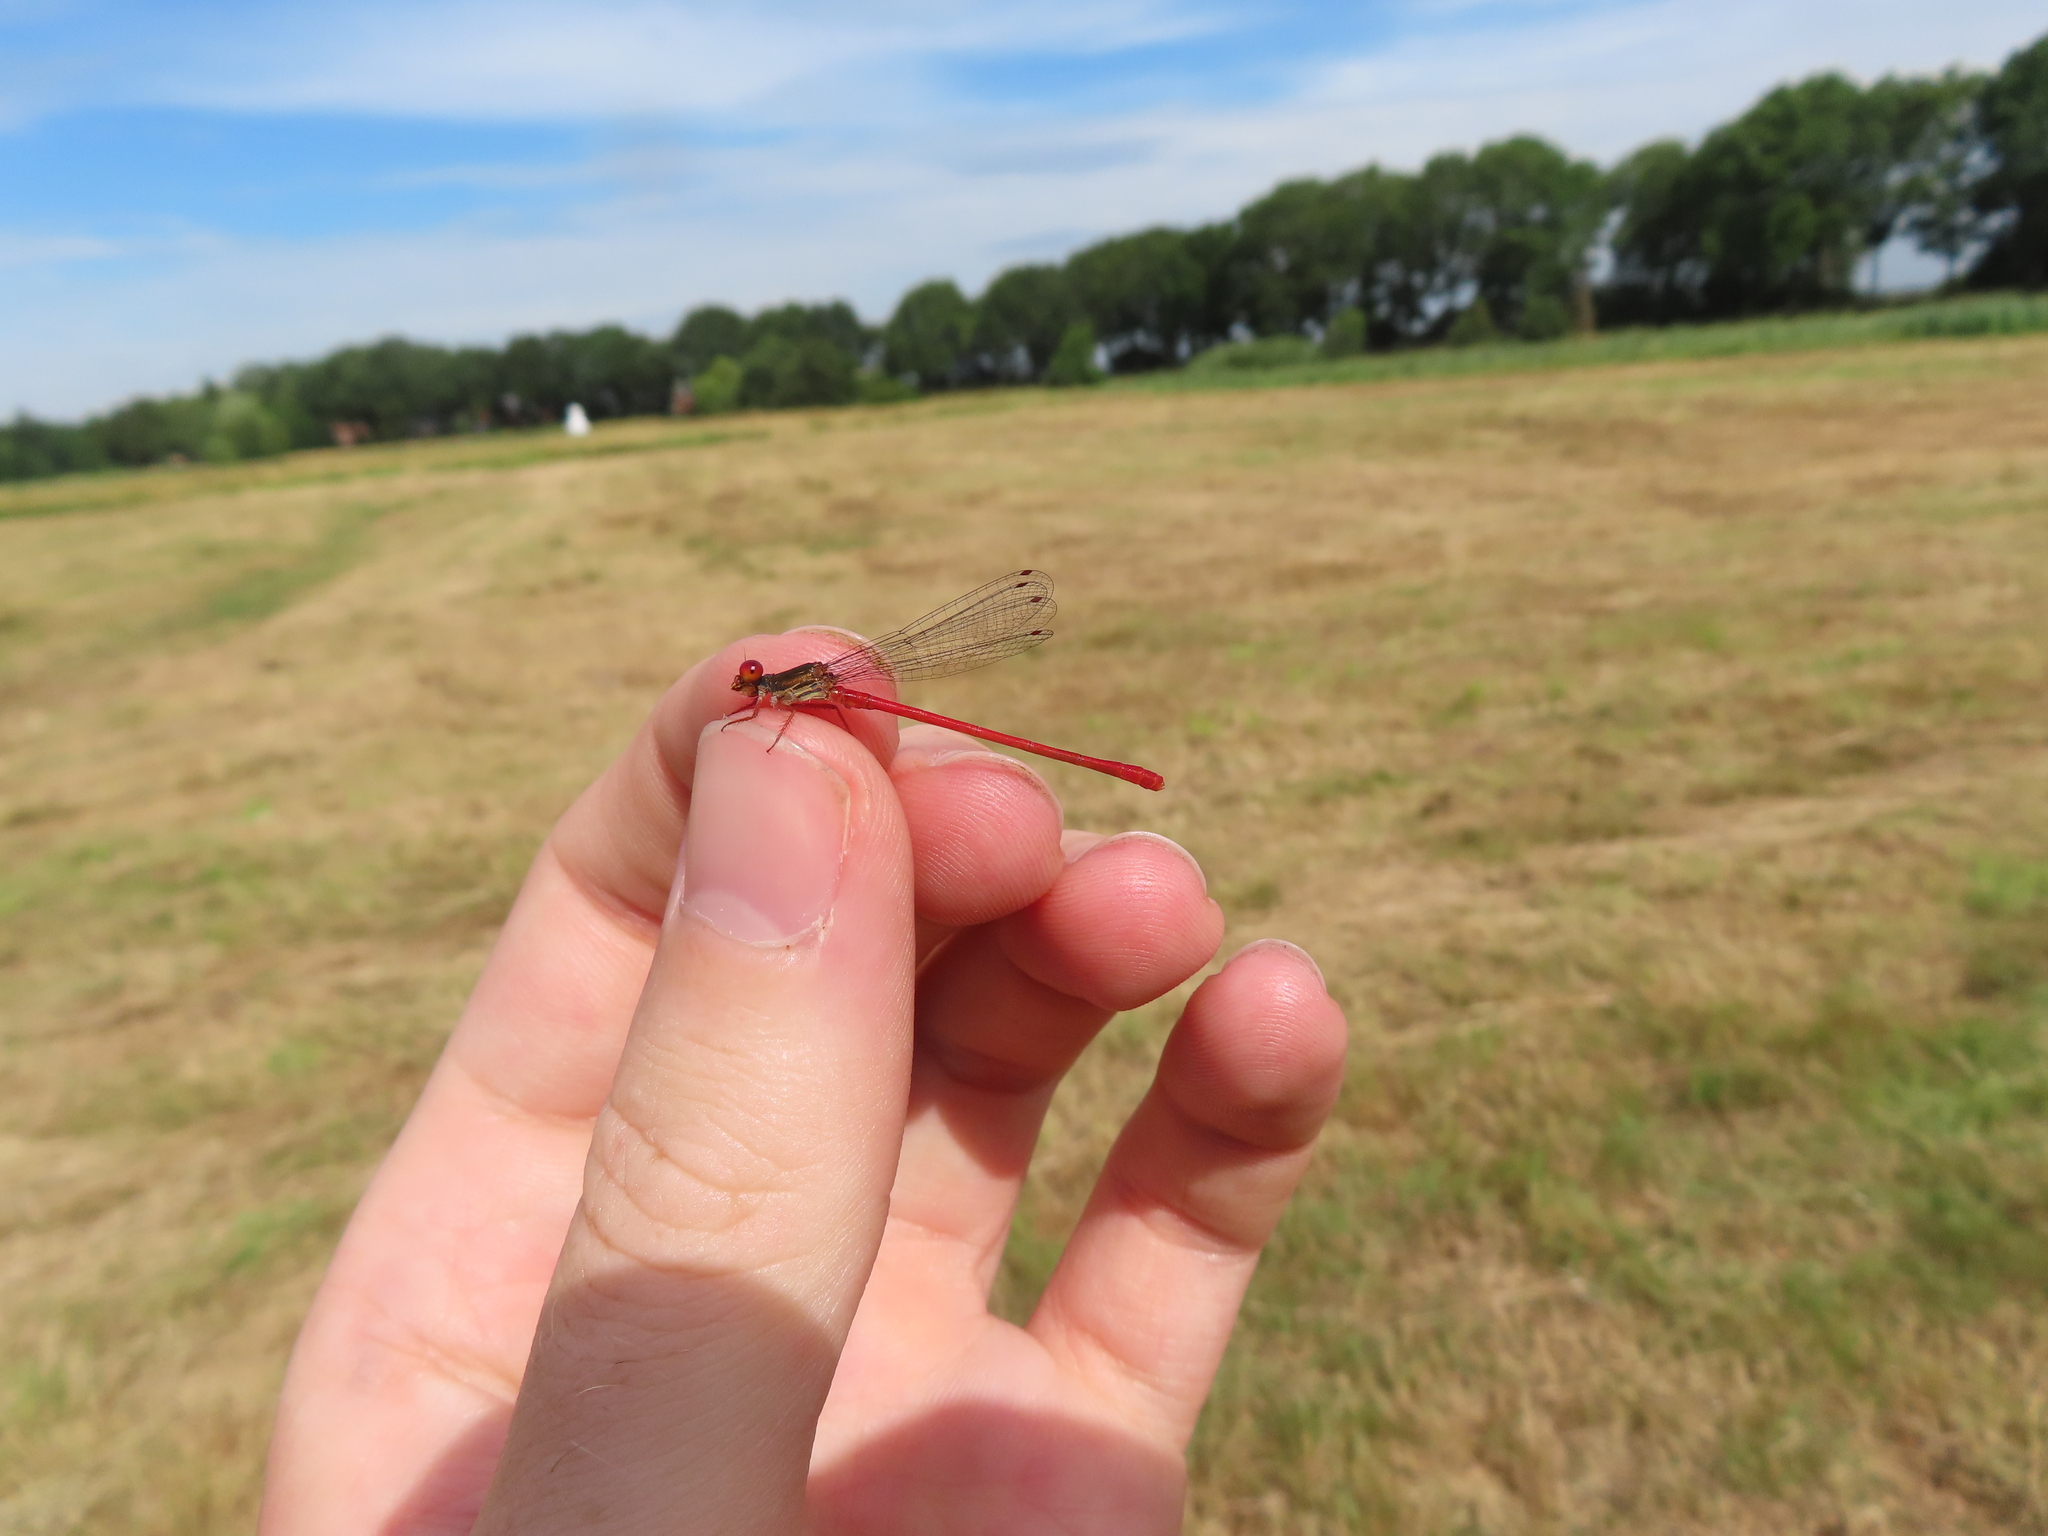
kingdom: Animalia
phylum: Arthropoda
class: Insecta
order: Odonata
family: Coenagrionidae
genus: Ceriagrion
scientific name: Ceriagrion tenellum
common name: Small red damselfly
